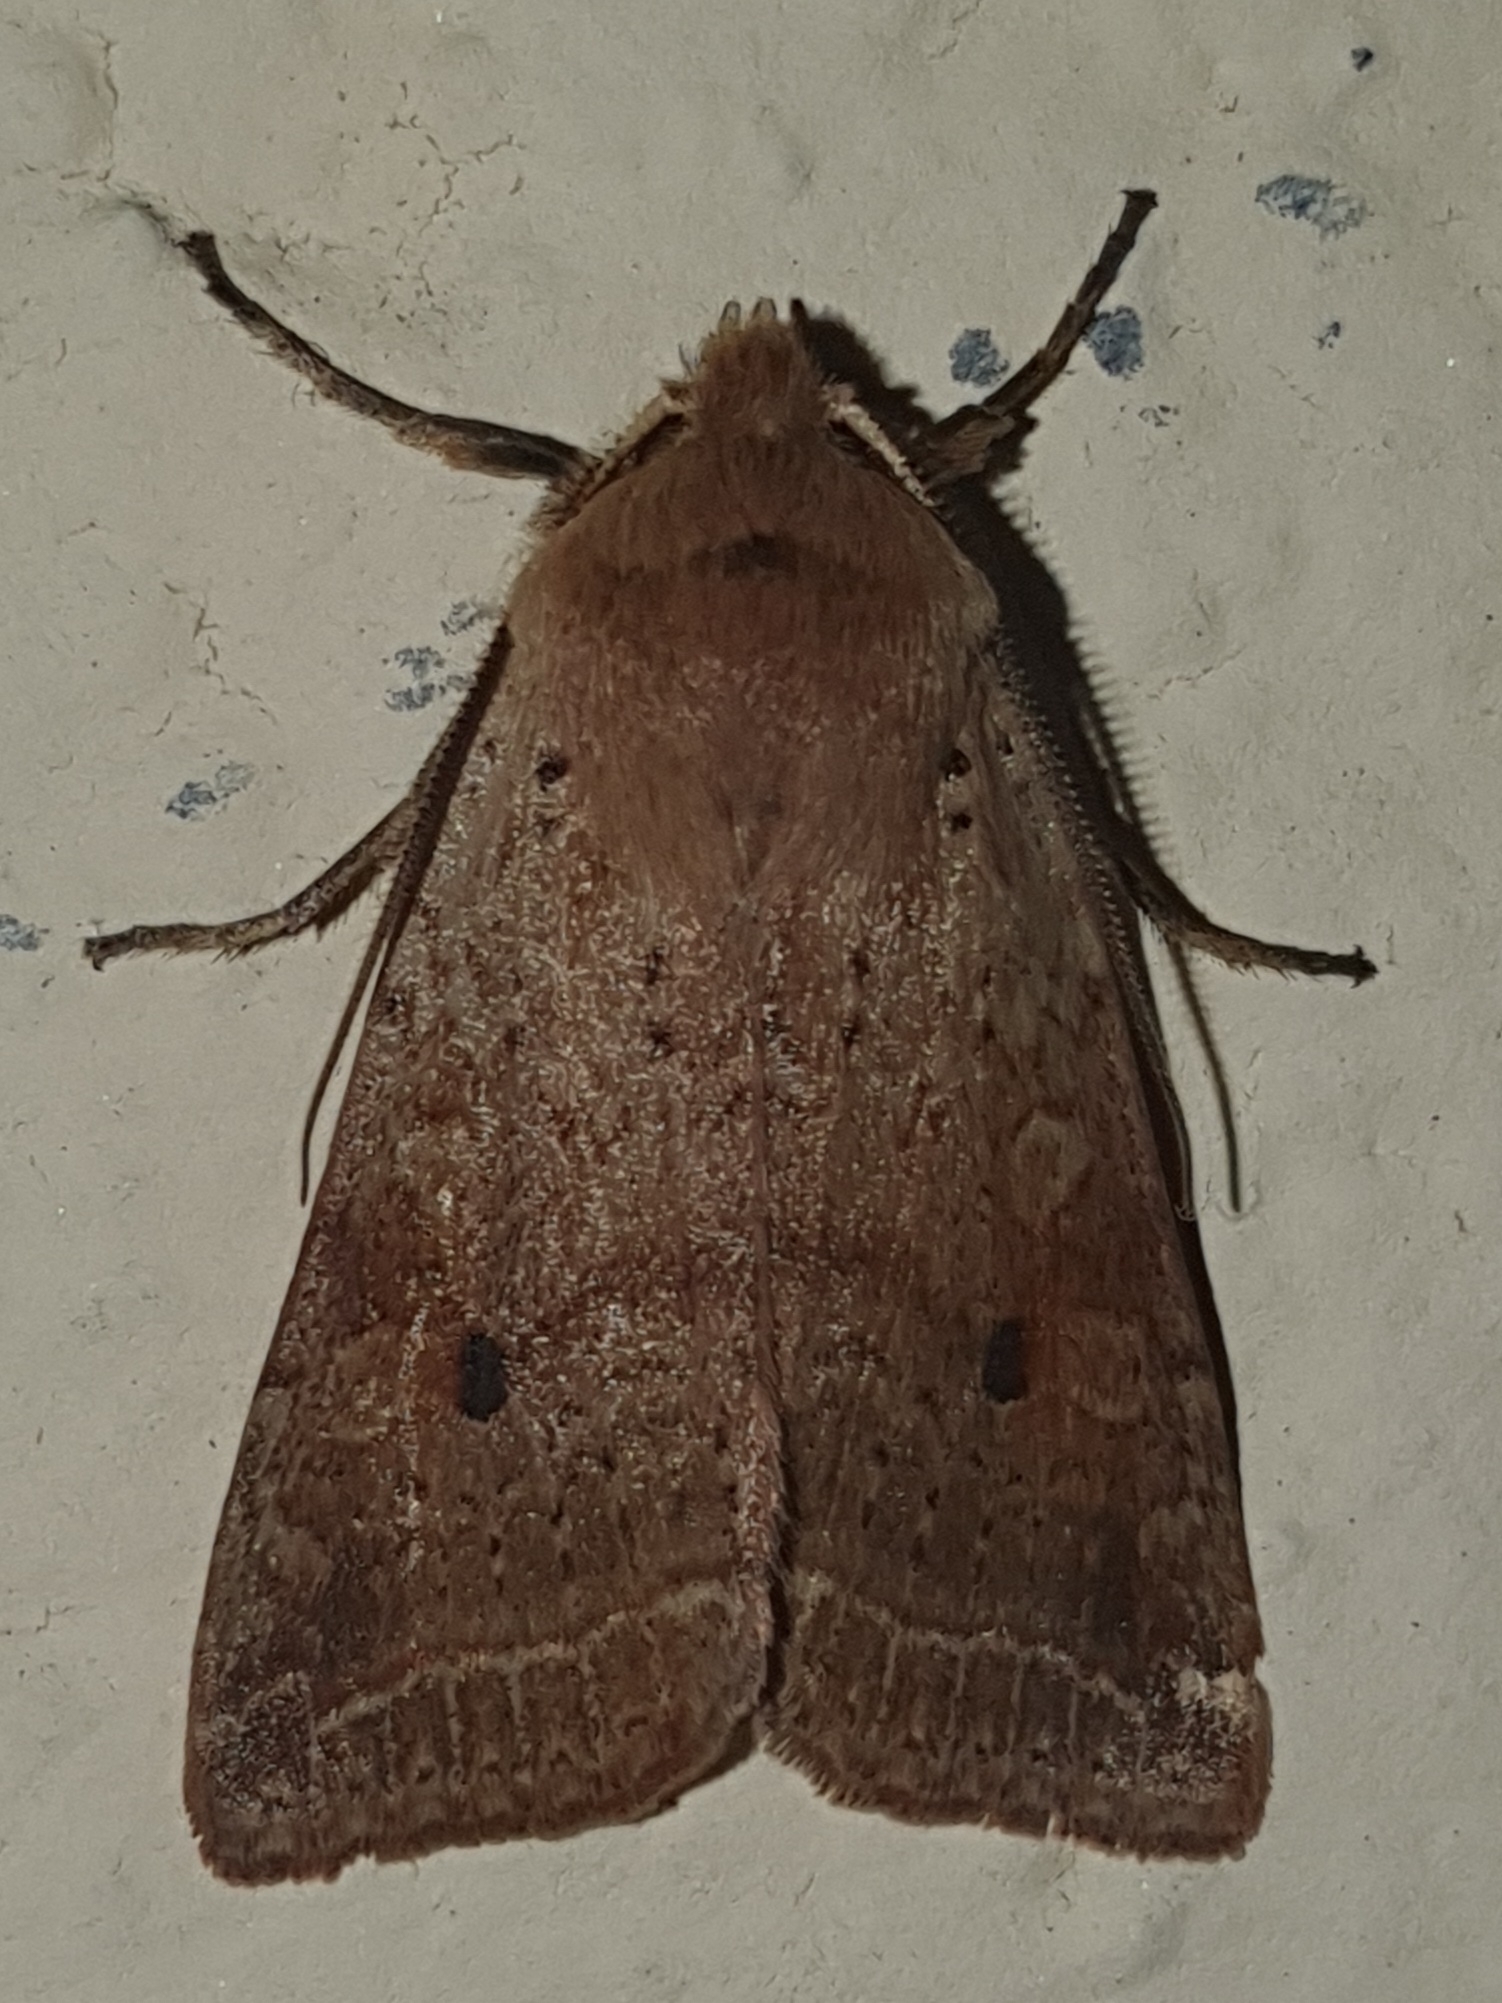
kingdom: Animalia
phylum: Arthropoda
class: Insecta
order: Lepidoptera
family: Noctuidae
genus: Agrochola
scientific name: Agrochola blidaensis
